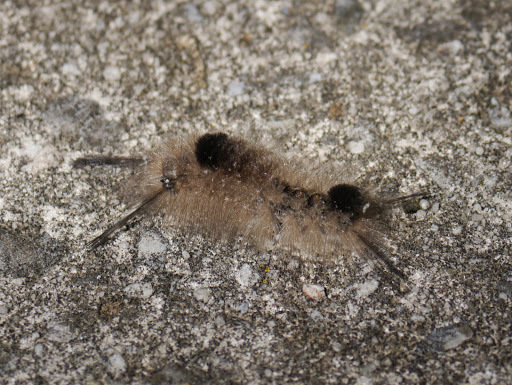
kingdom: Animalia
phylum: Arthropoda
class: Insecta
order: Lepidoptera
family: Erebidae
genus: Dasychira
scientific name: Dasychira obliquata
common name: Streaked tussock moth
